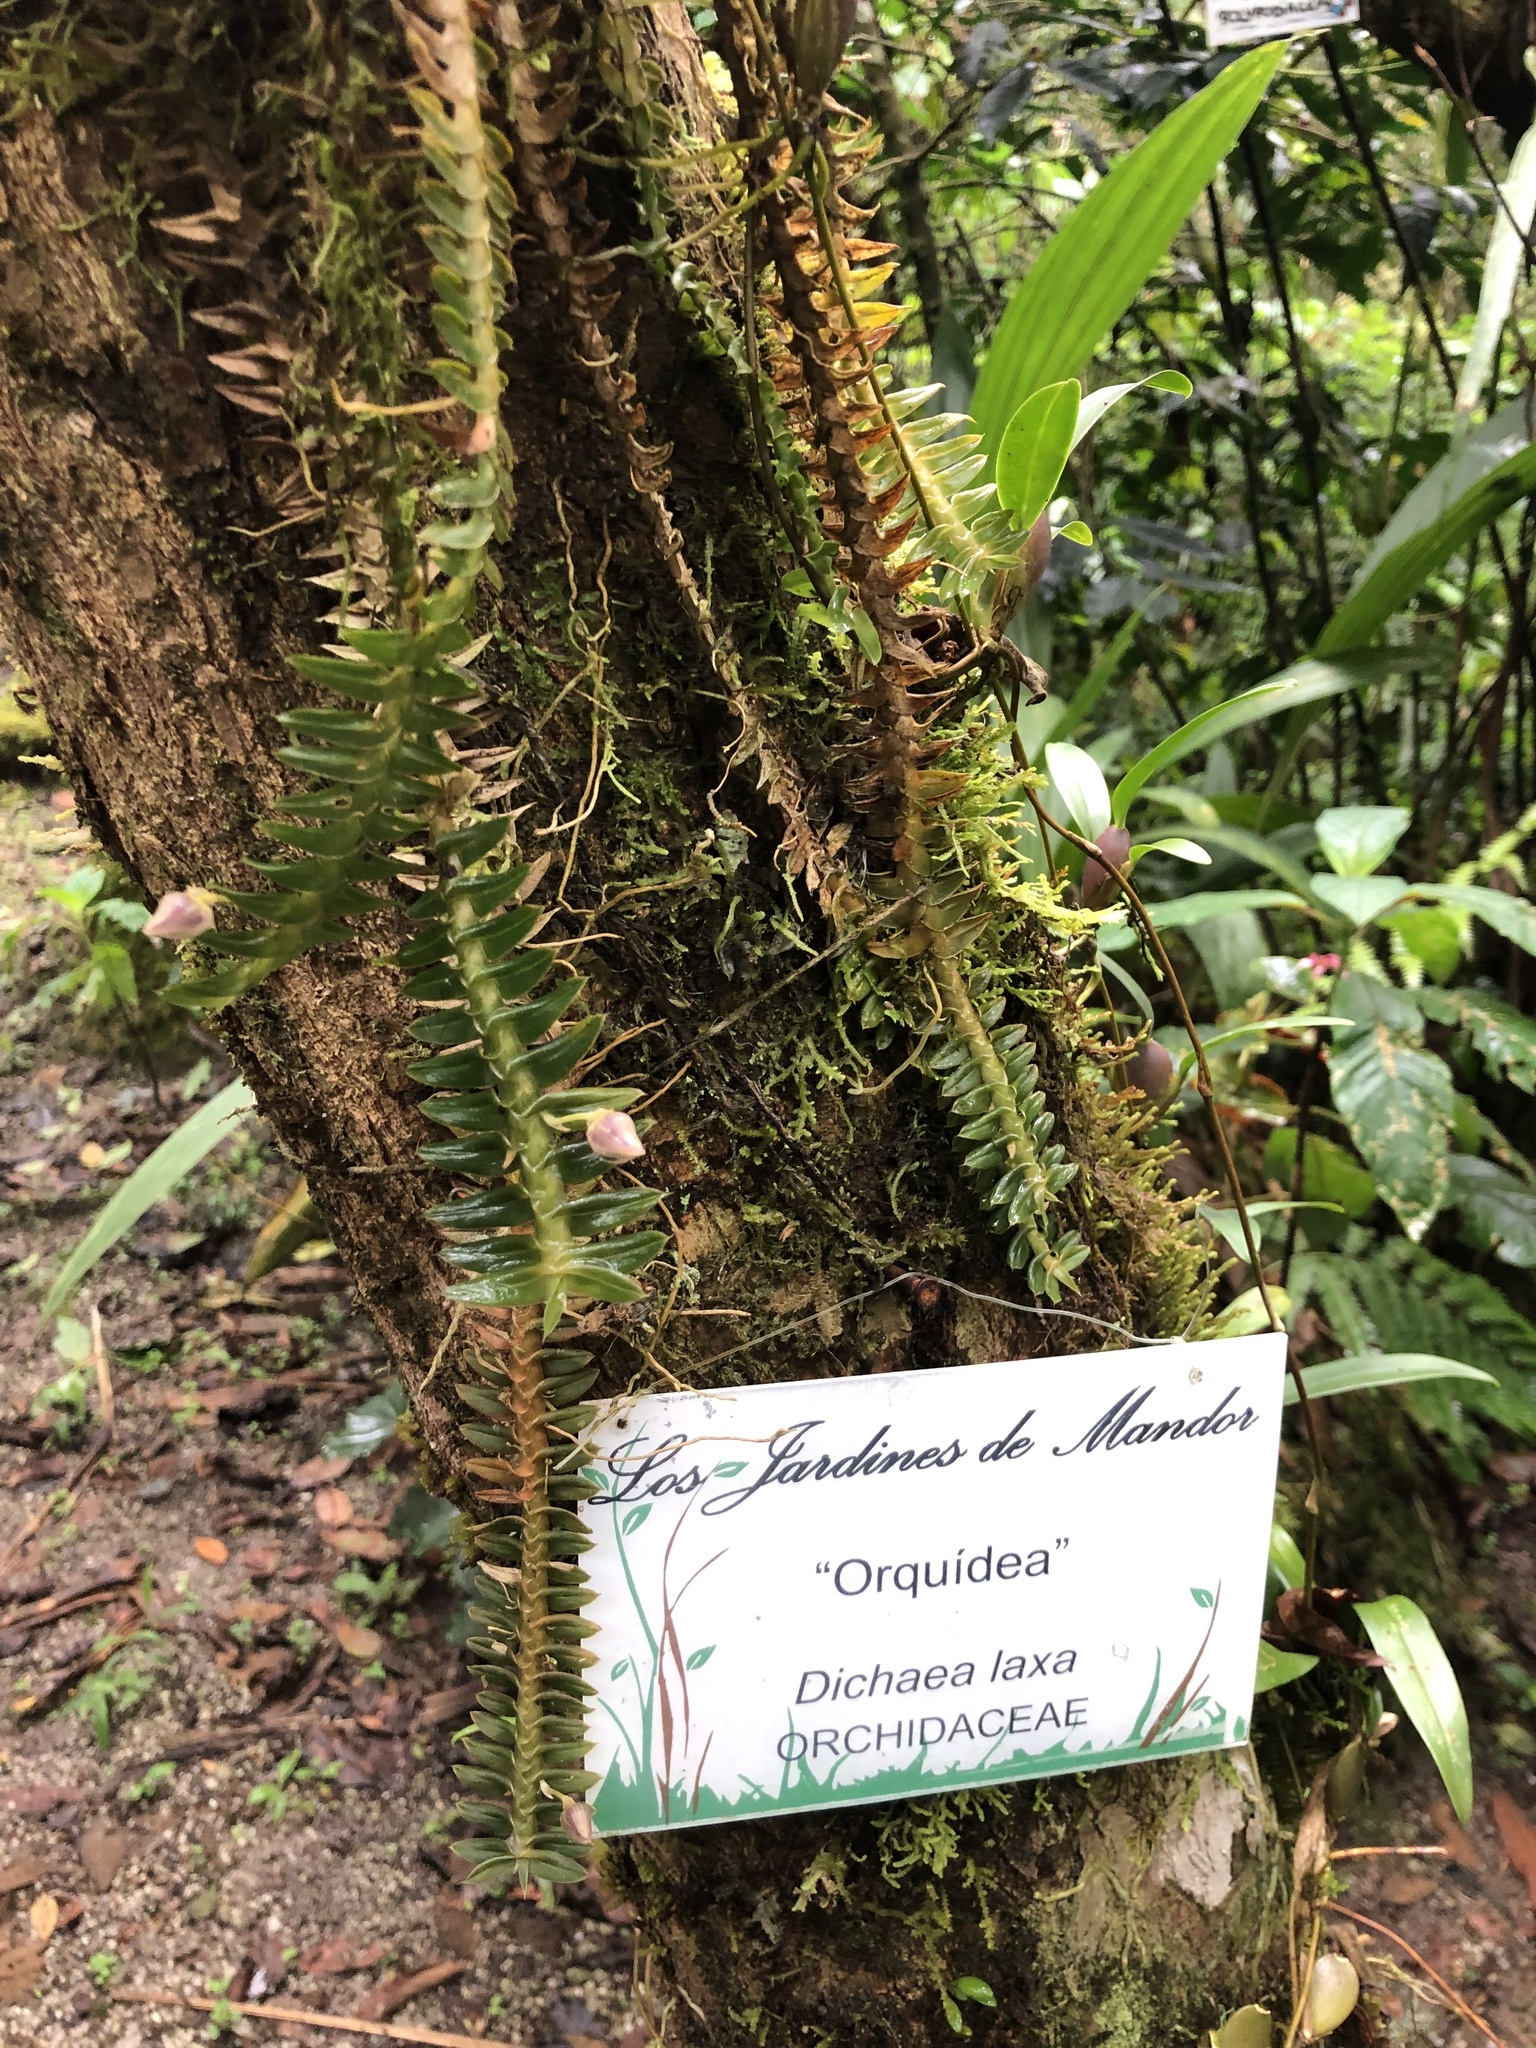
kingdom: Plantae
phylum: Tracheophyta
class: Liliopsida
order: Asparagales
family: Orchidaceae
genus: Dichaea
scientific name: Dichaea laxa
